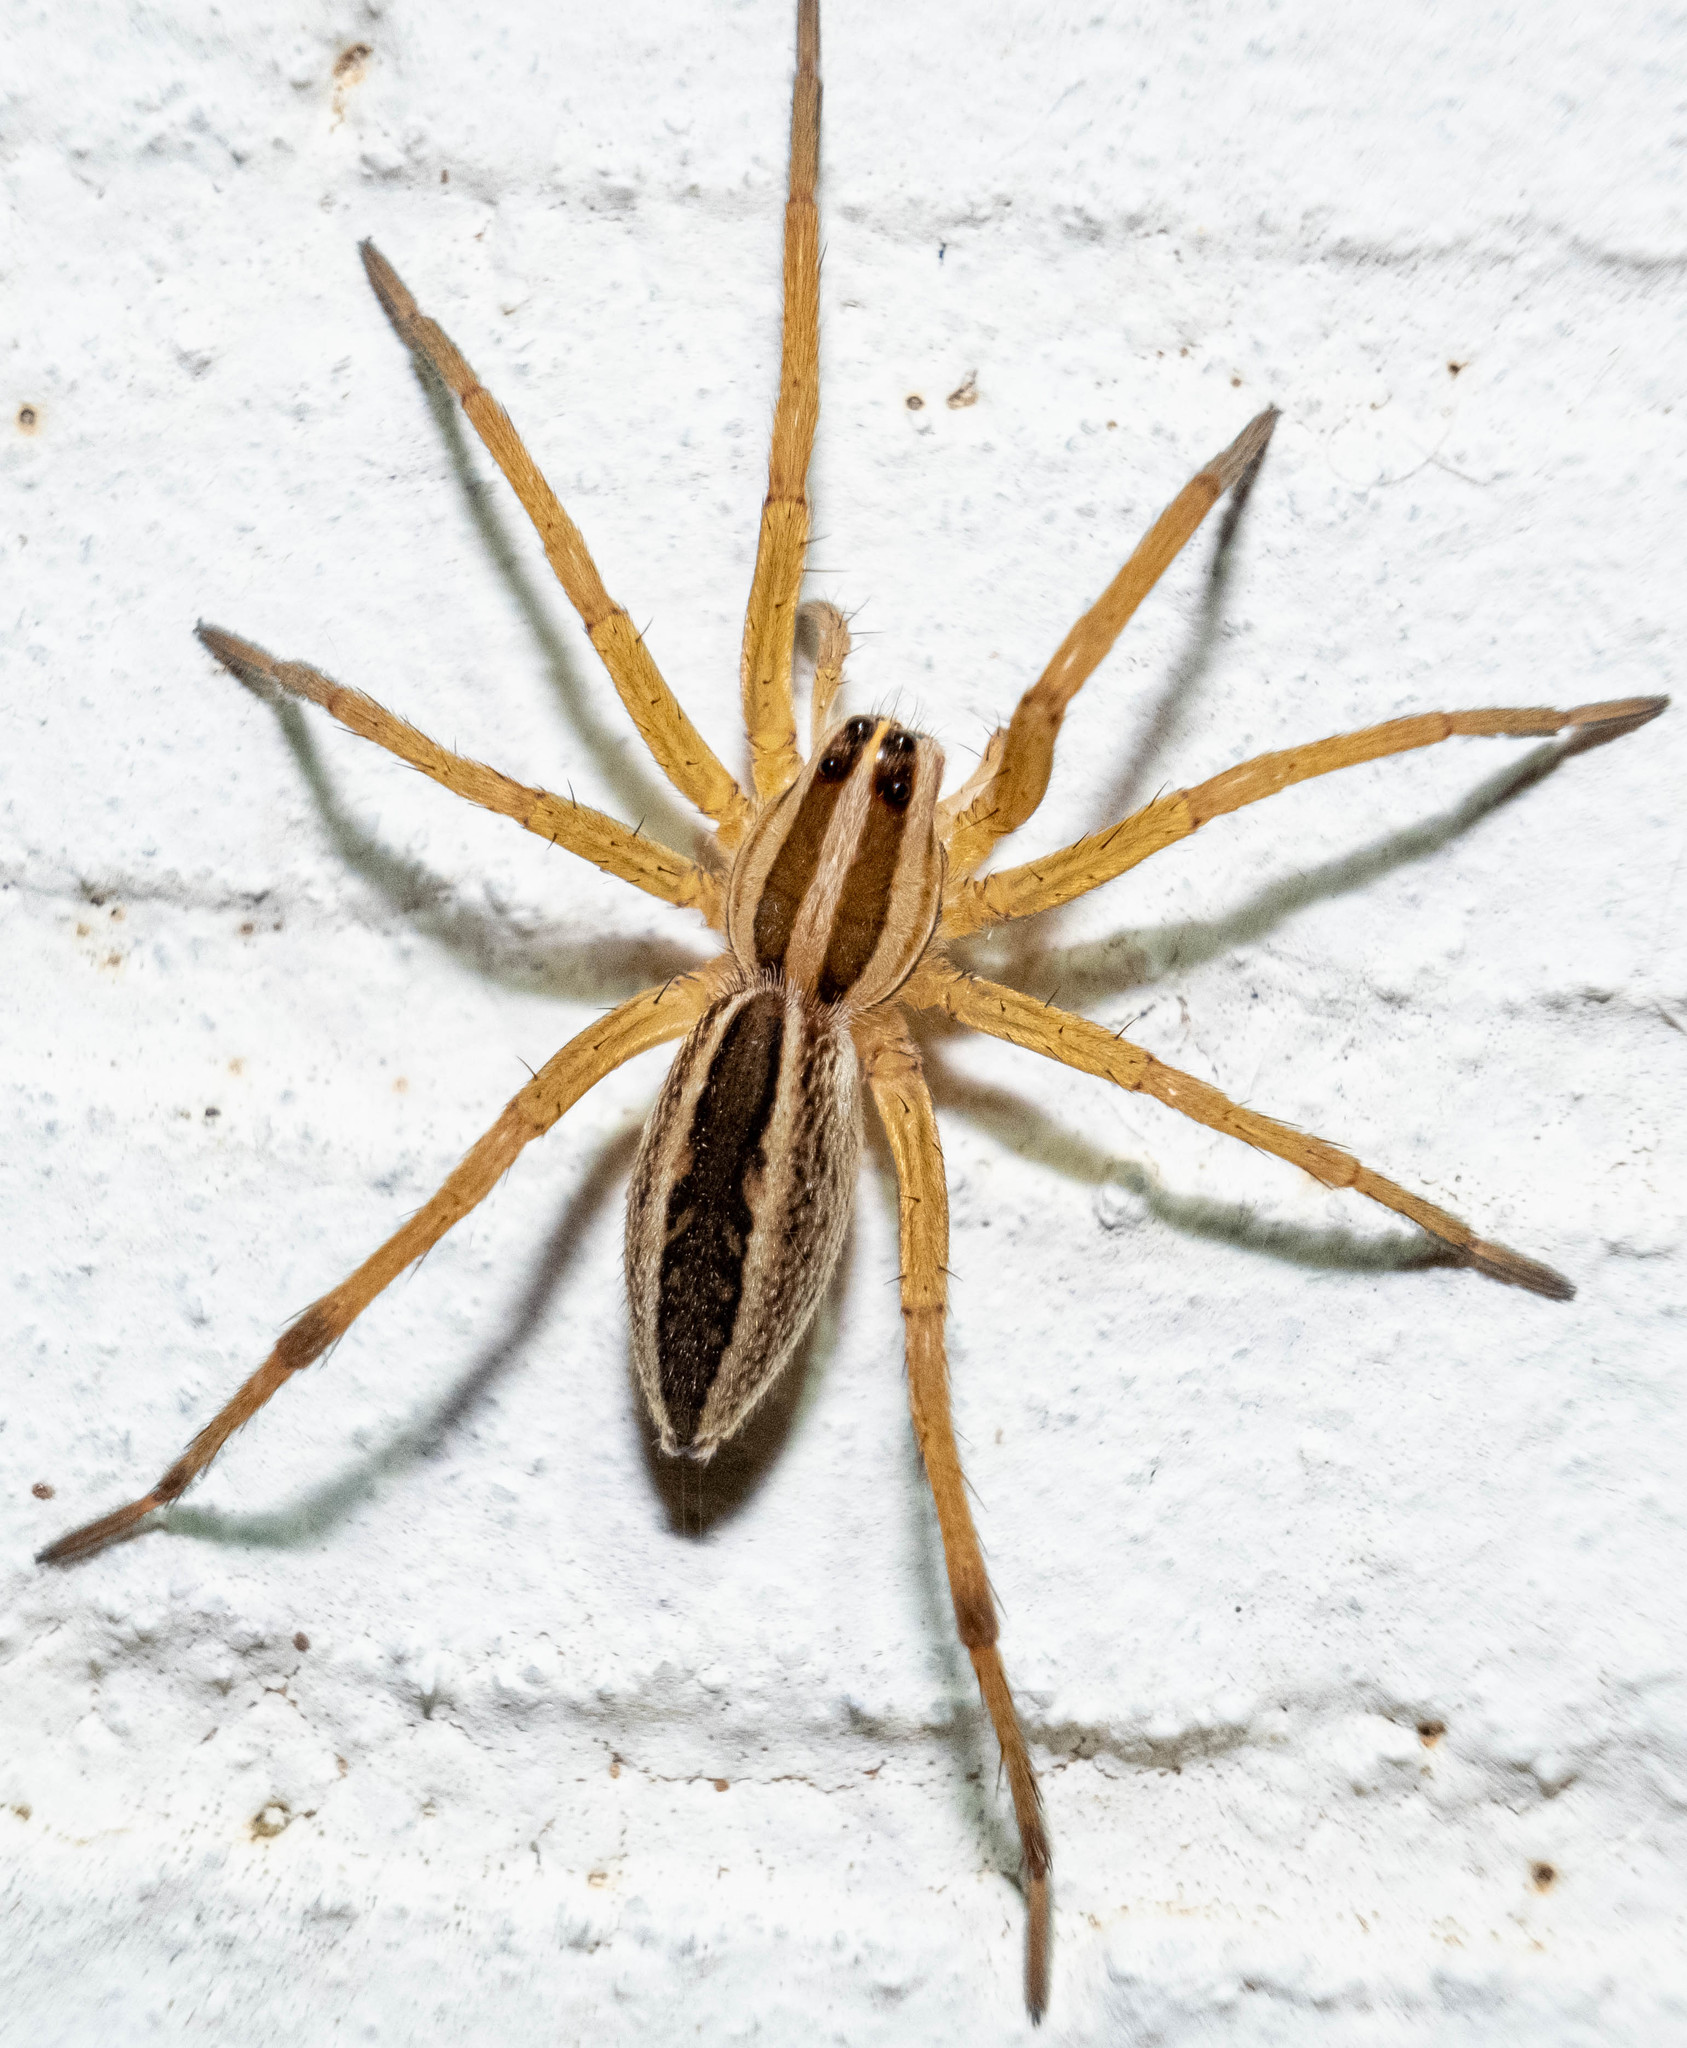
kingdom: Animalia
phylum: Arthropoda
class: Arachnida
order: Araneae
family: Lycosidae
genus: Rabidosa
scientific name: Rabidosa rabida
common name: Rabid wolf spider
